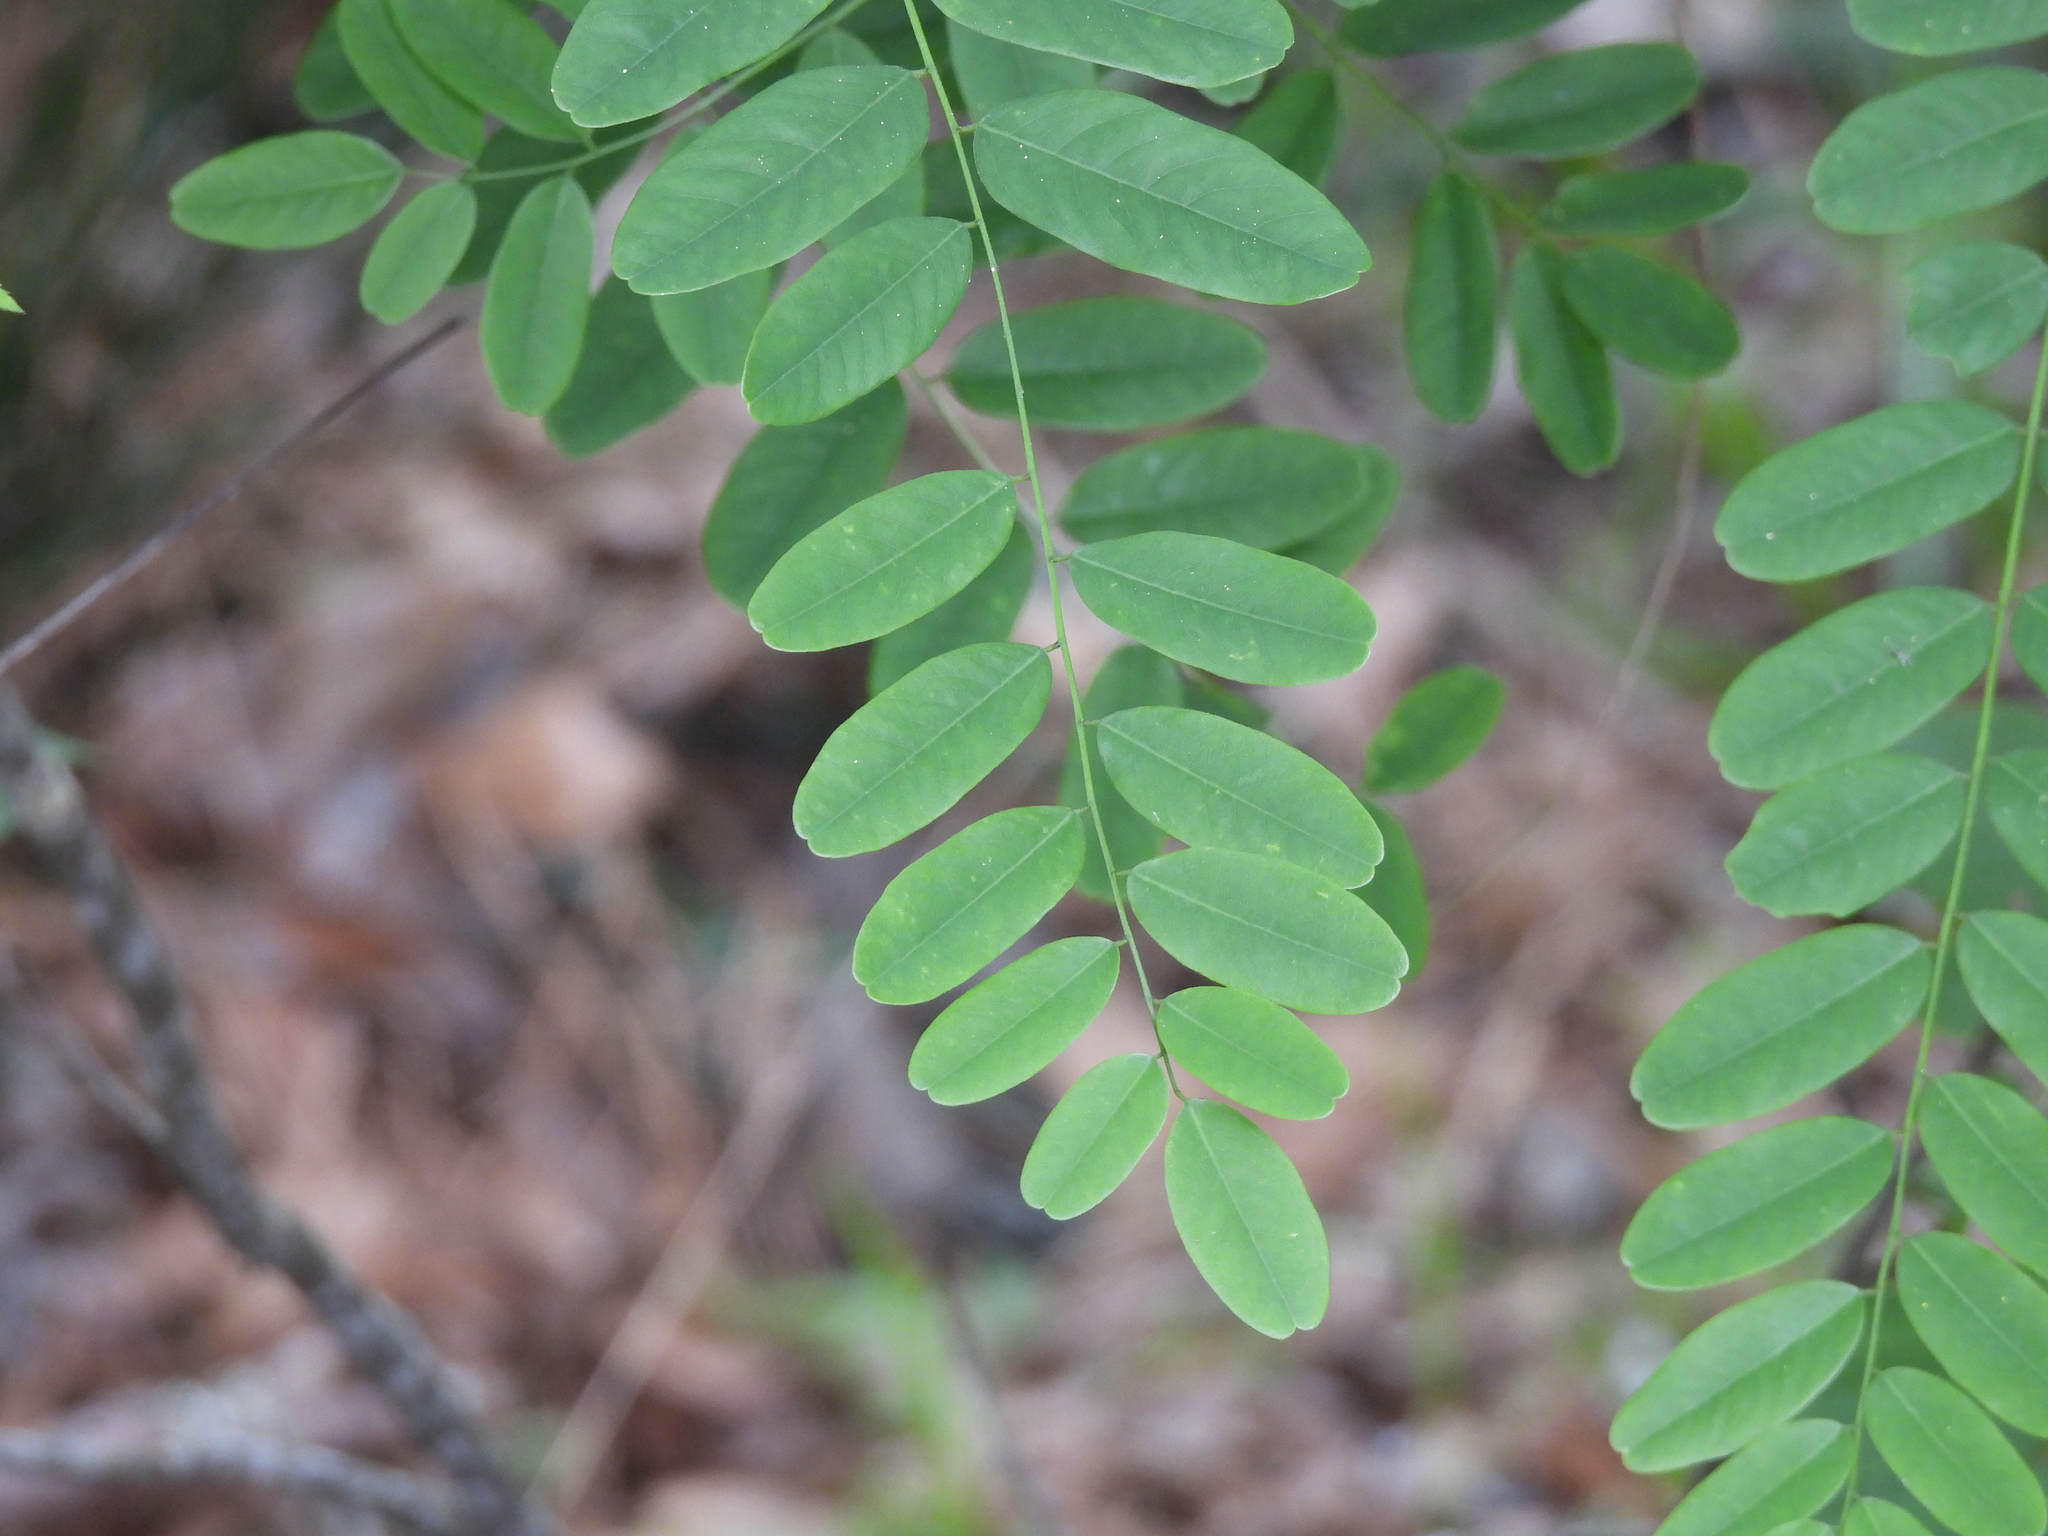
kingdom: Plantae
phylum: Tracheophyta
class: Magnoliopsida
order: Fabales
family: Fabaceae
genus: Amorpha
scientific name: Amorpha fruticosa
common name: False indigo
